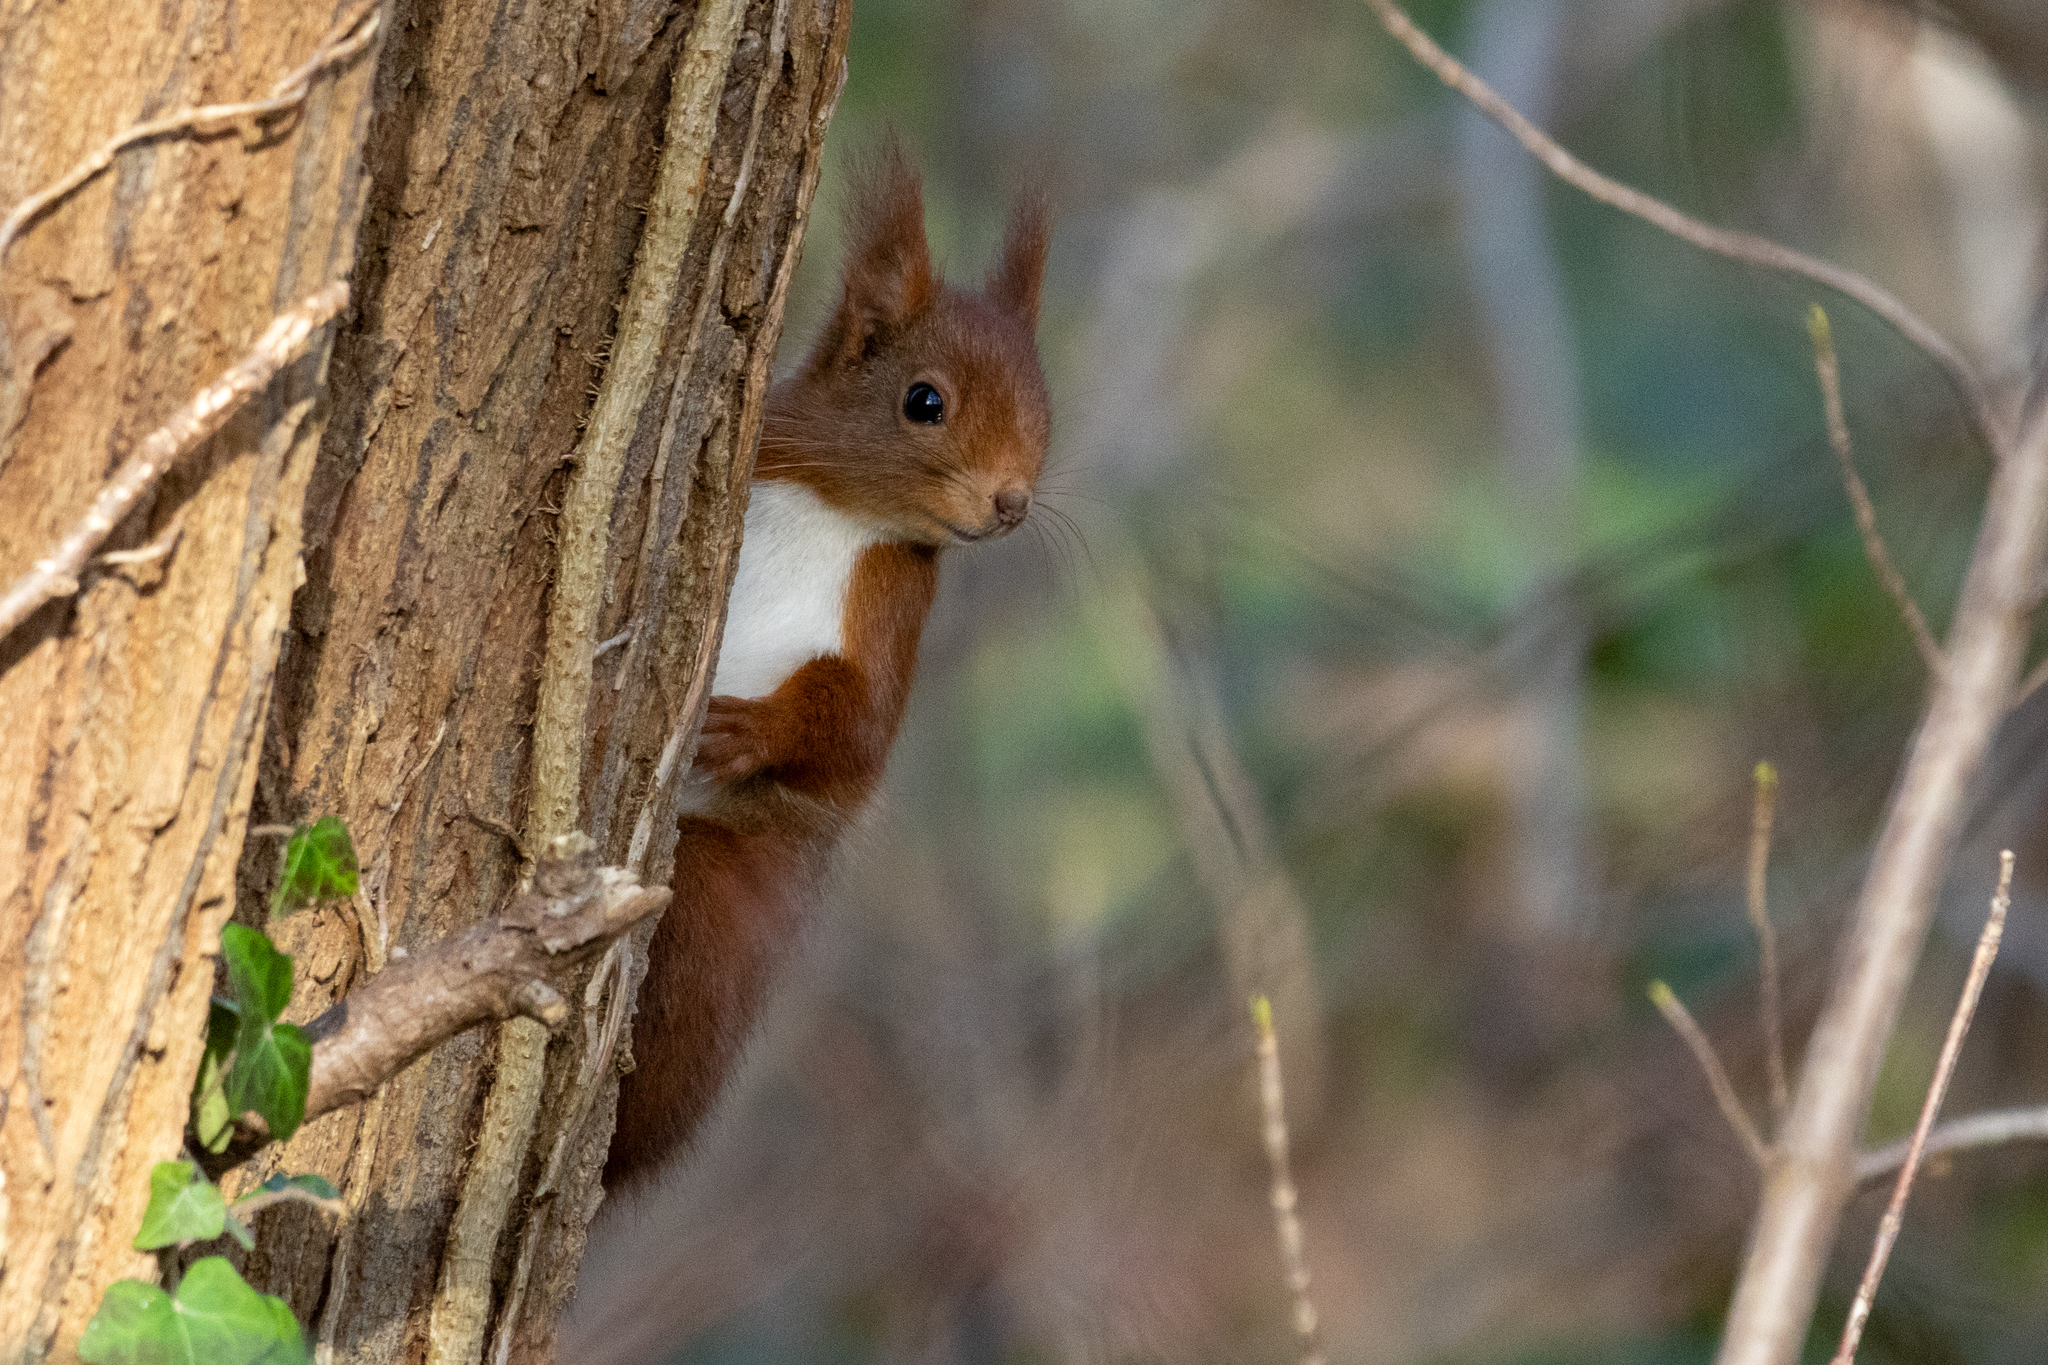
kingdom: Animalia
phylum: Chordata
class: Mammalia
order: Rodentia
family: Sciuridae
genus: Sciurus
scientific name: Sciurus vulgaris
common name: Eurasian red squirrel
